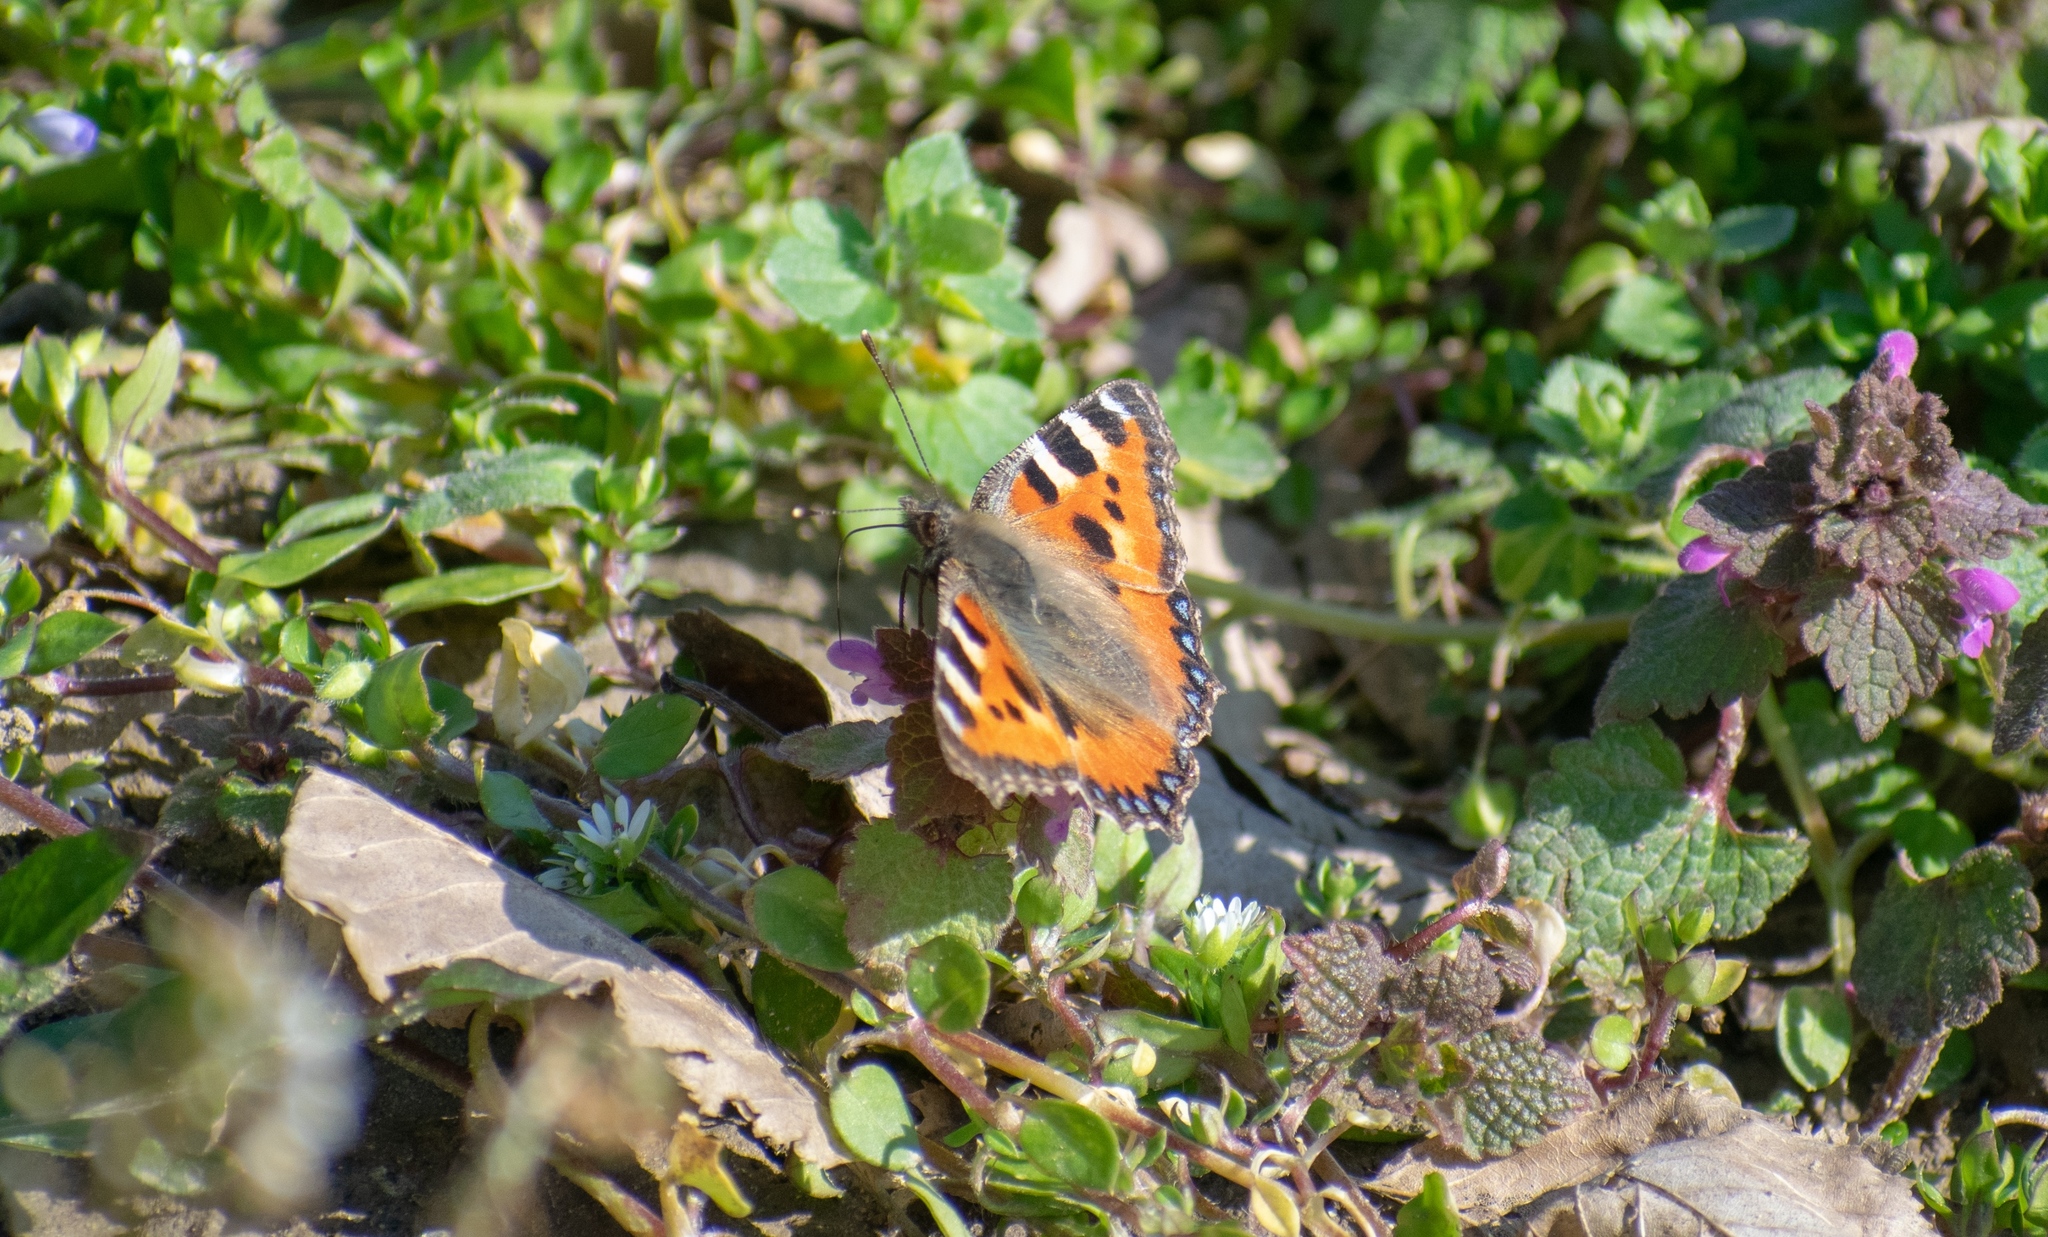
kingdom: Animalia
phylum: Arthropoda
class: Insecta
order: Lepidoptera
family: Nymphalidae
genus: Aglais
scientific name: Aglais urticae
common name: Small tortoiseshell
